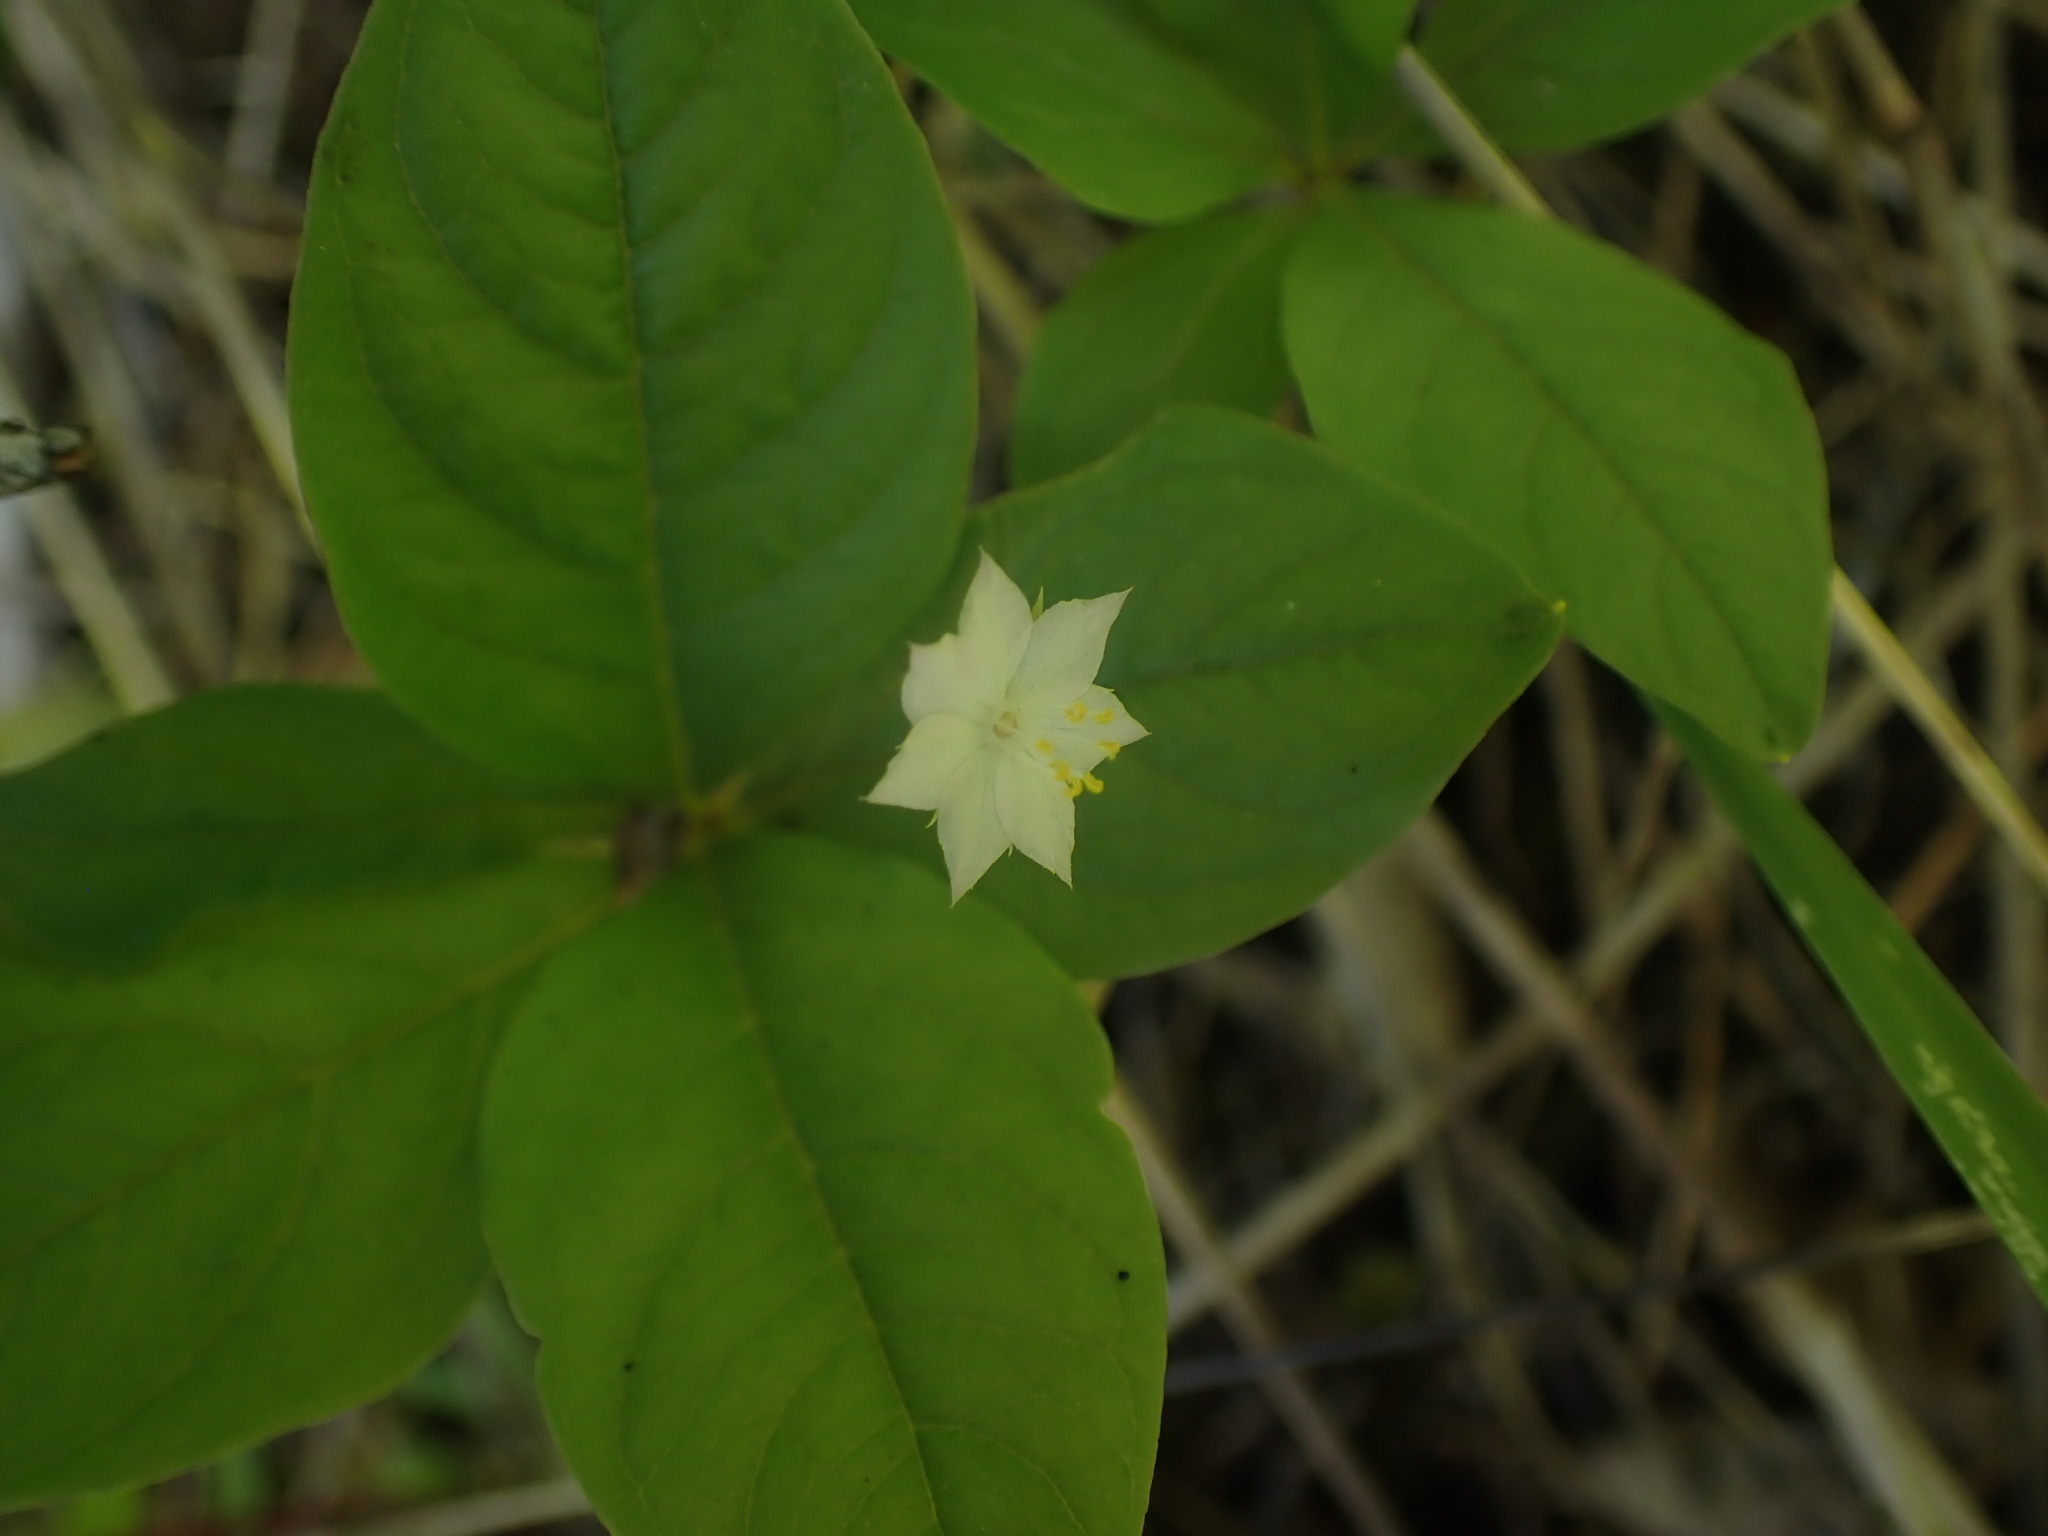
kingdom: Plantae
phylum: Tracheophyta
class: Magnoliopsida
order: Ericales
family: Primulaceae
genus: Lysimachia
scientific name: Lysimachia latifolia
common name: Pacific starflower
